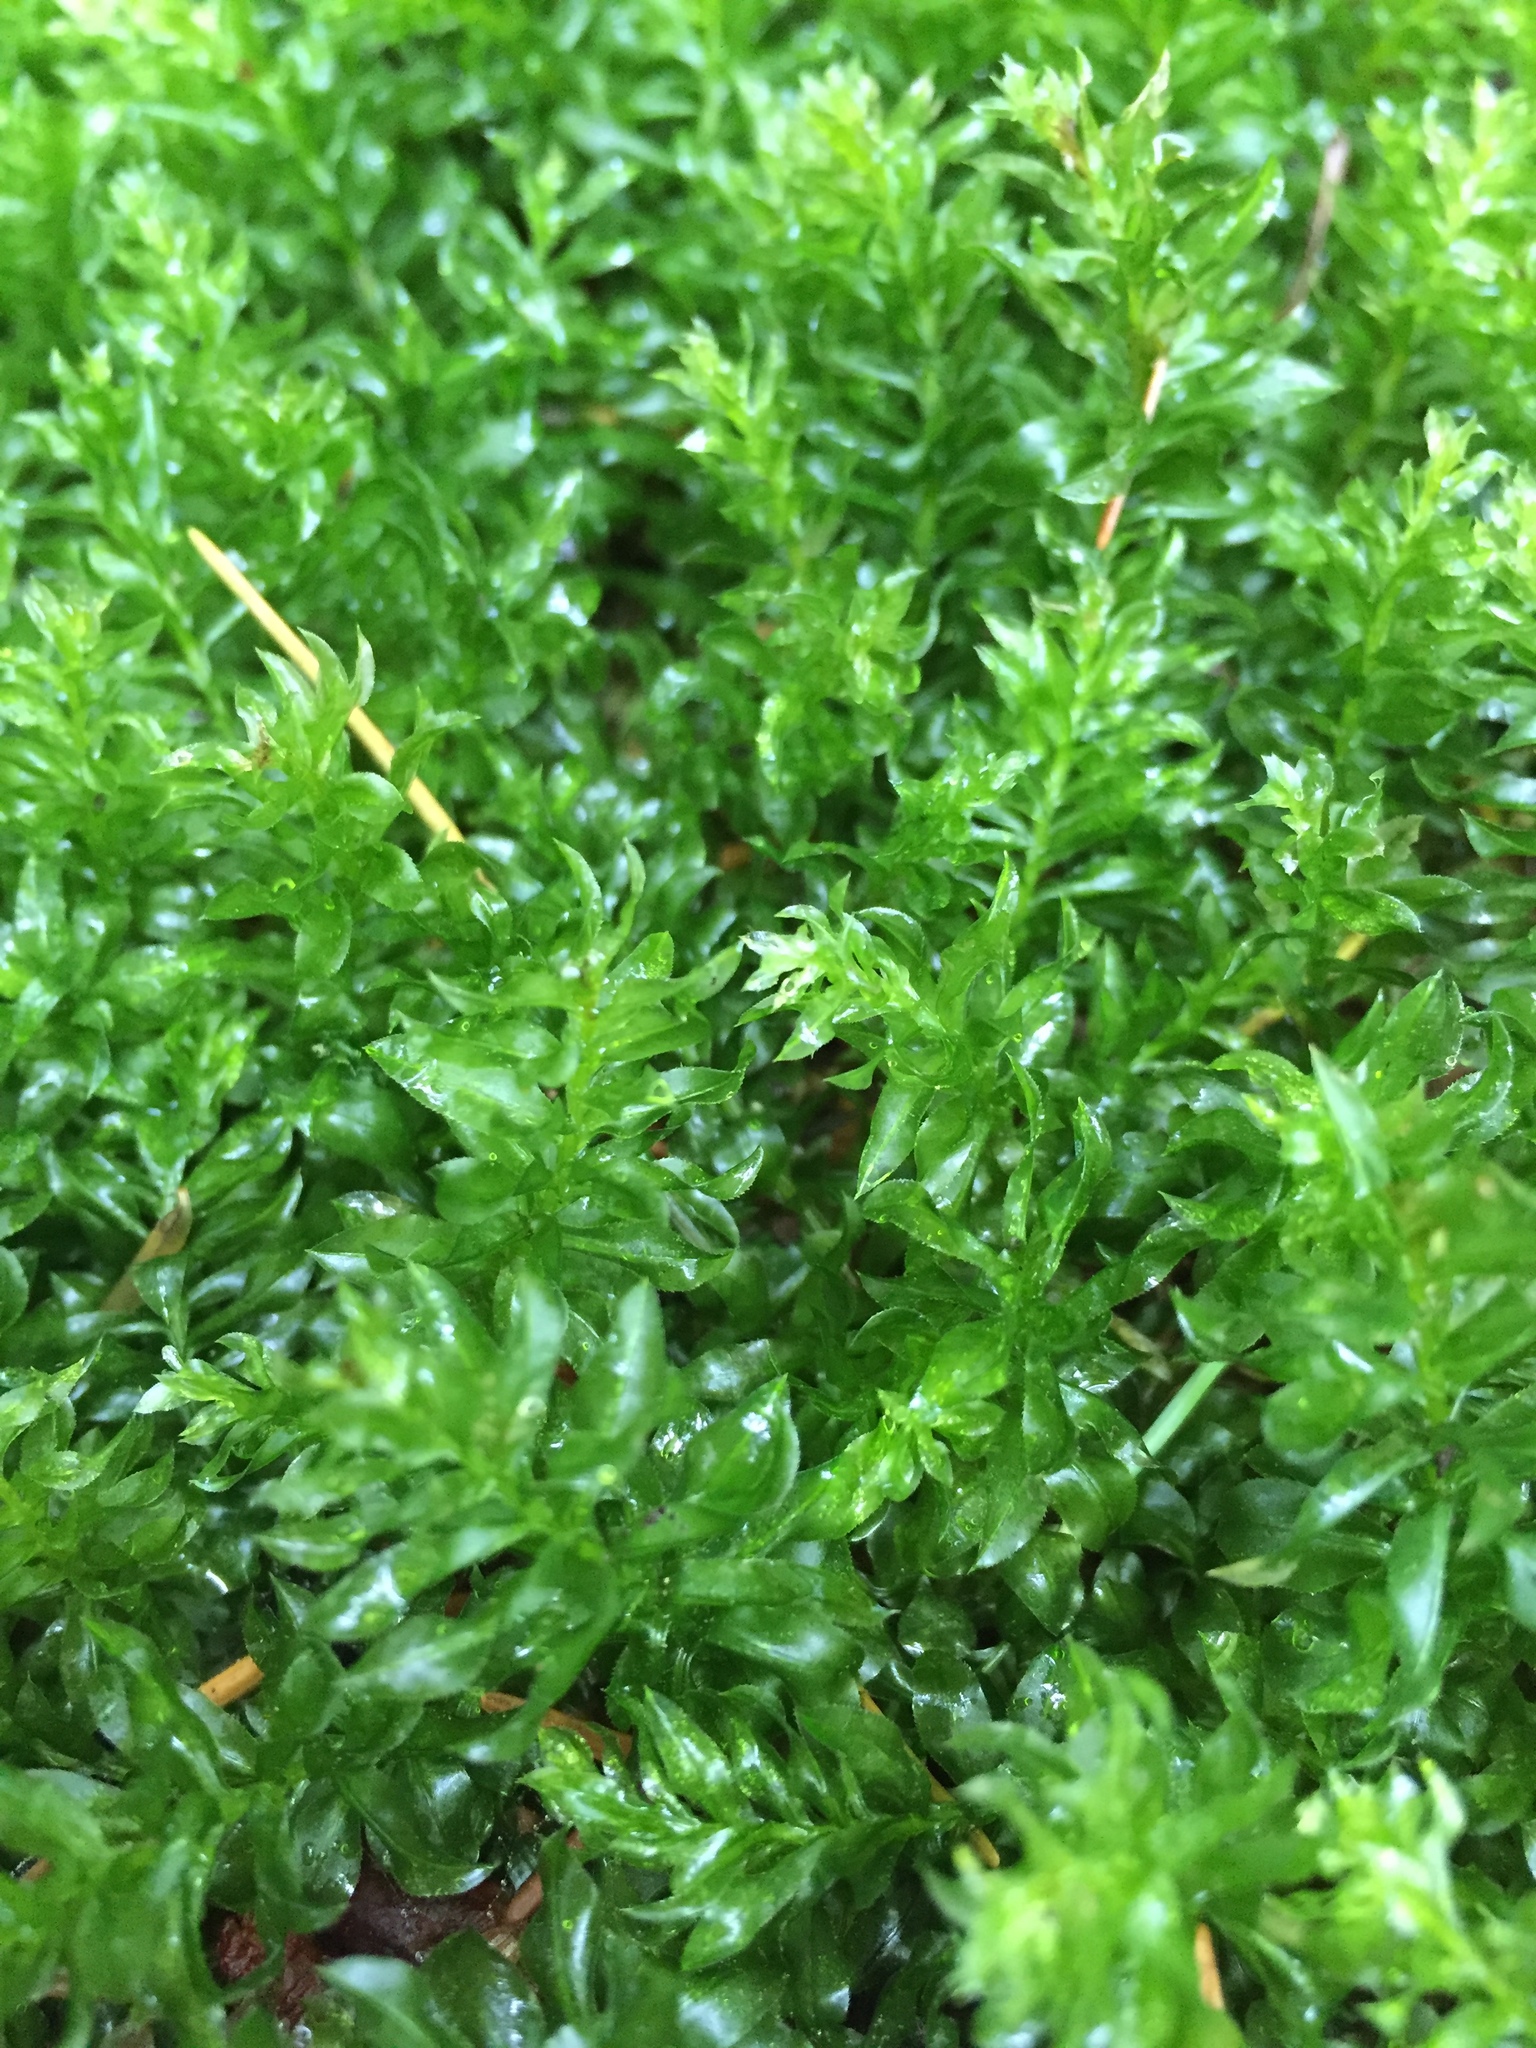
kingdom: Plantae
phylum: Bryophyta
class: Bryopsida
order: Bryales
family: Mniaceae
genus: Plagiomnium
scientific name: Plagiomnium insigne
